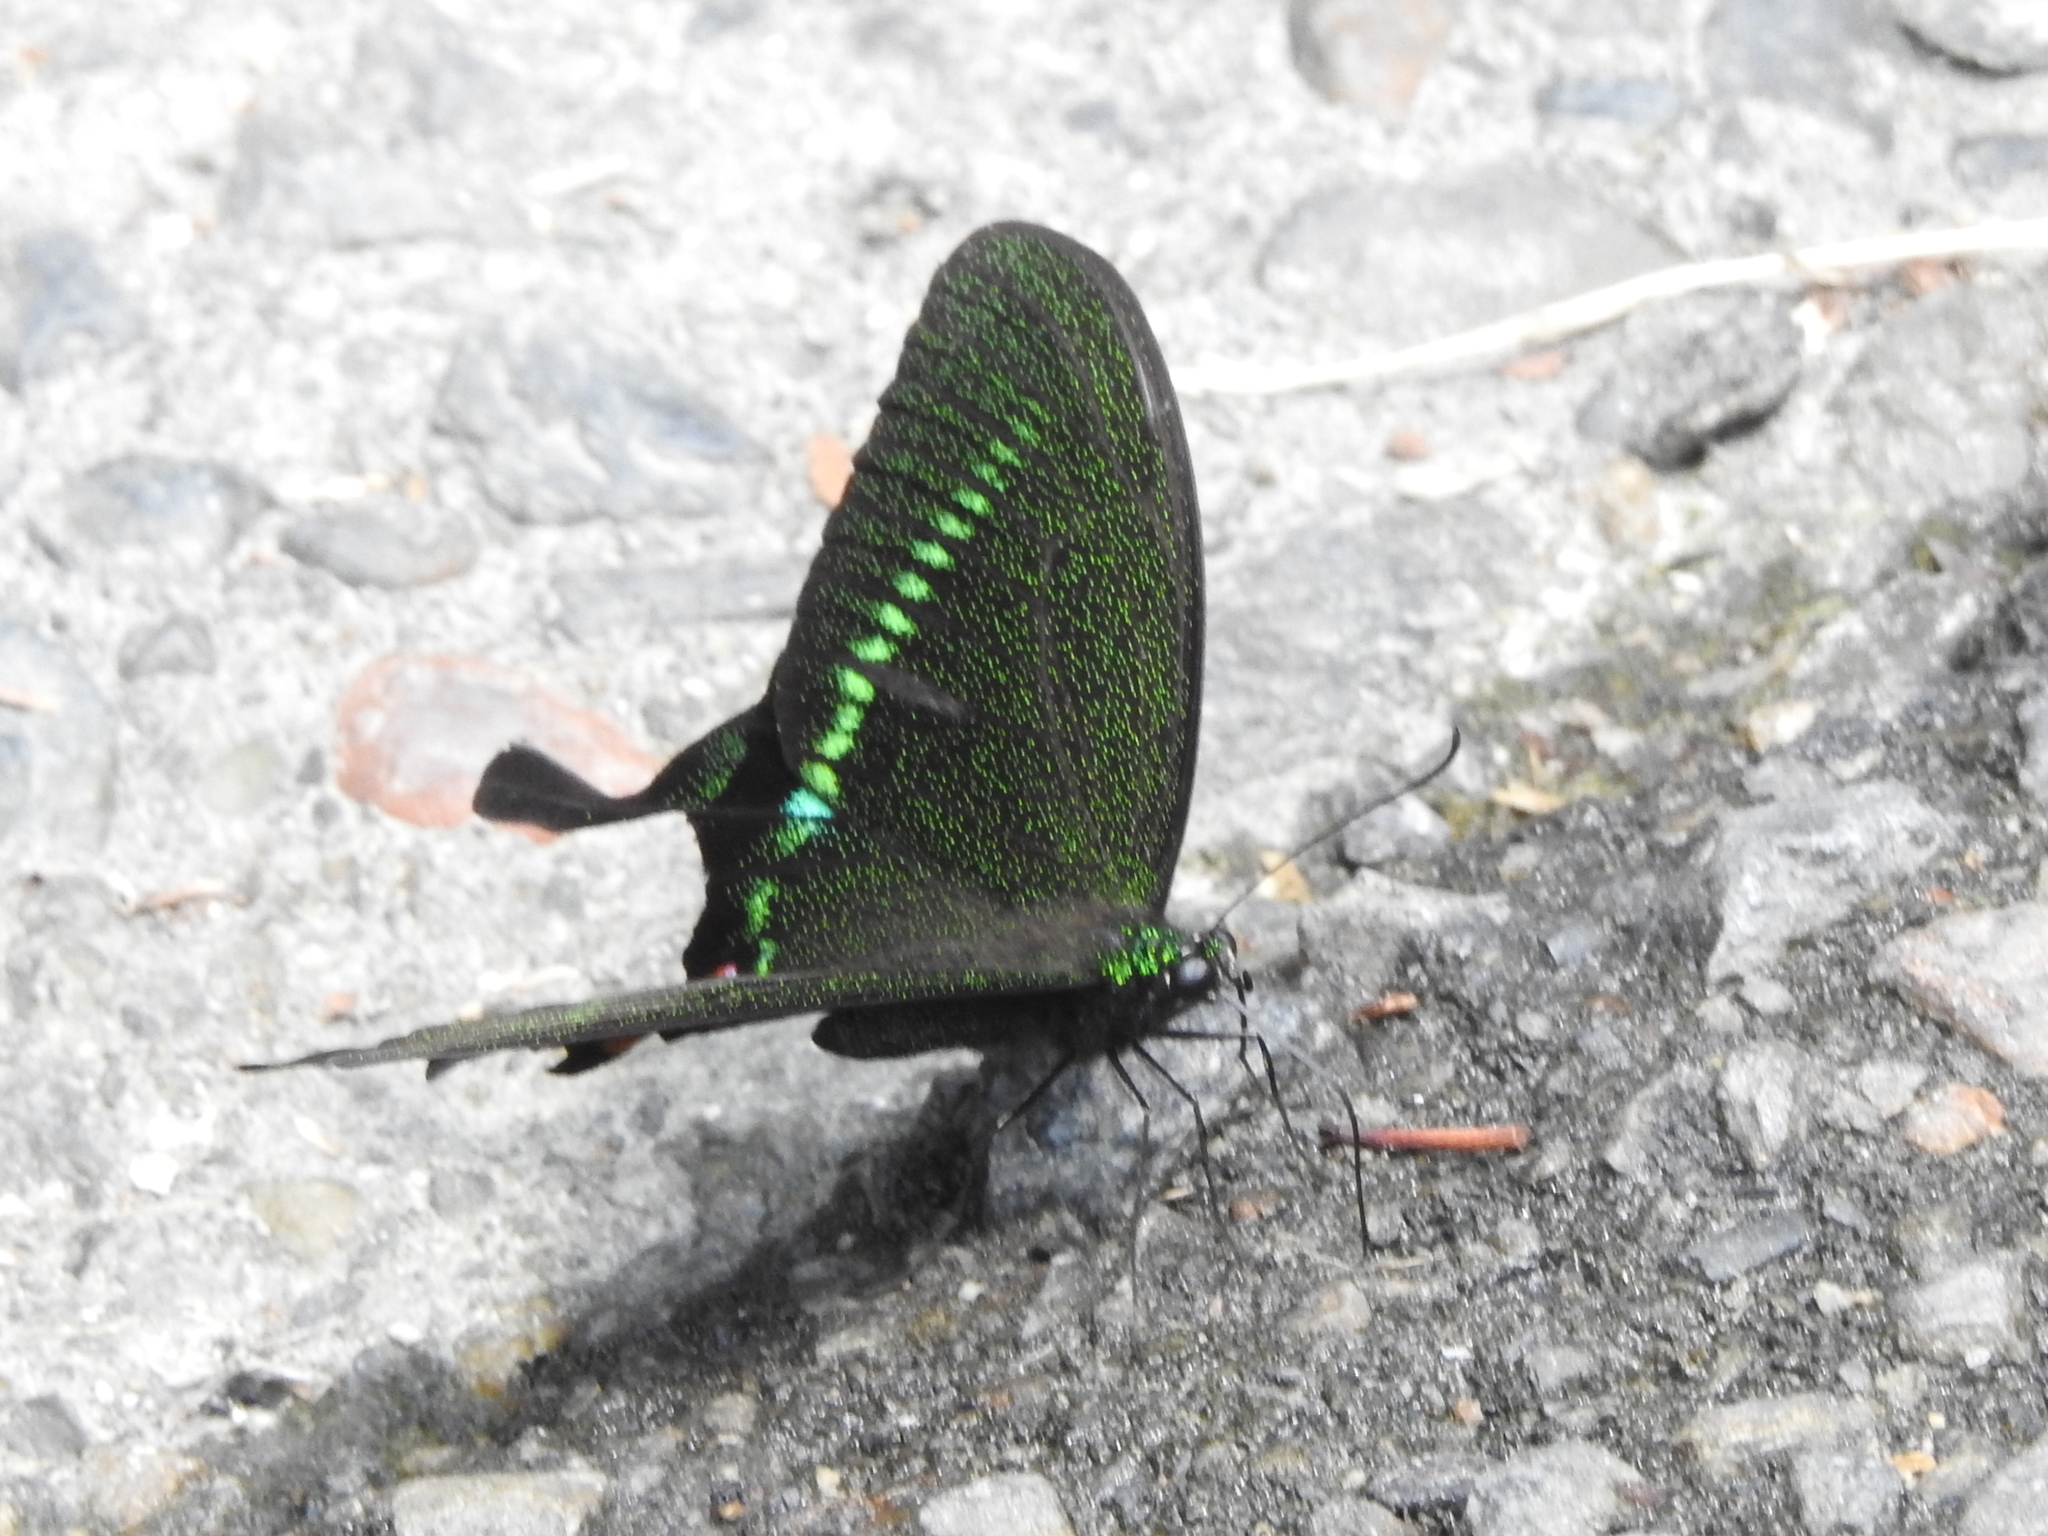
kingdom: Animalia
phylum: Arthropoda
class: Insecta
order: Lepidoptera
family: Papilionidae
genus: Papilio
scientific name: Papilio hermosanus
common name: Taiwanese glazed swallowtail
